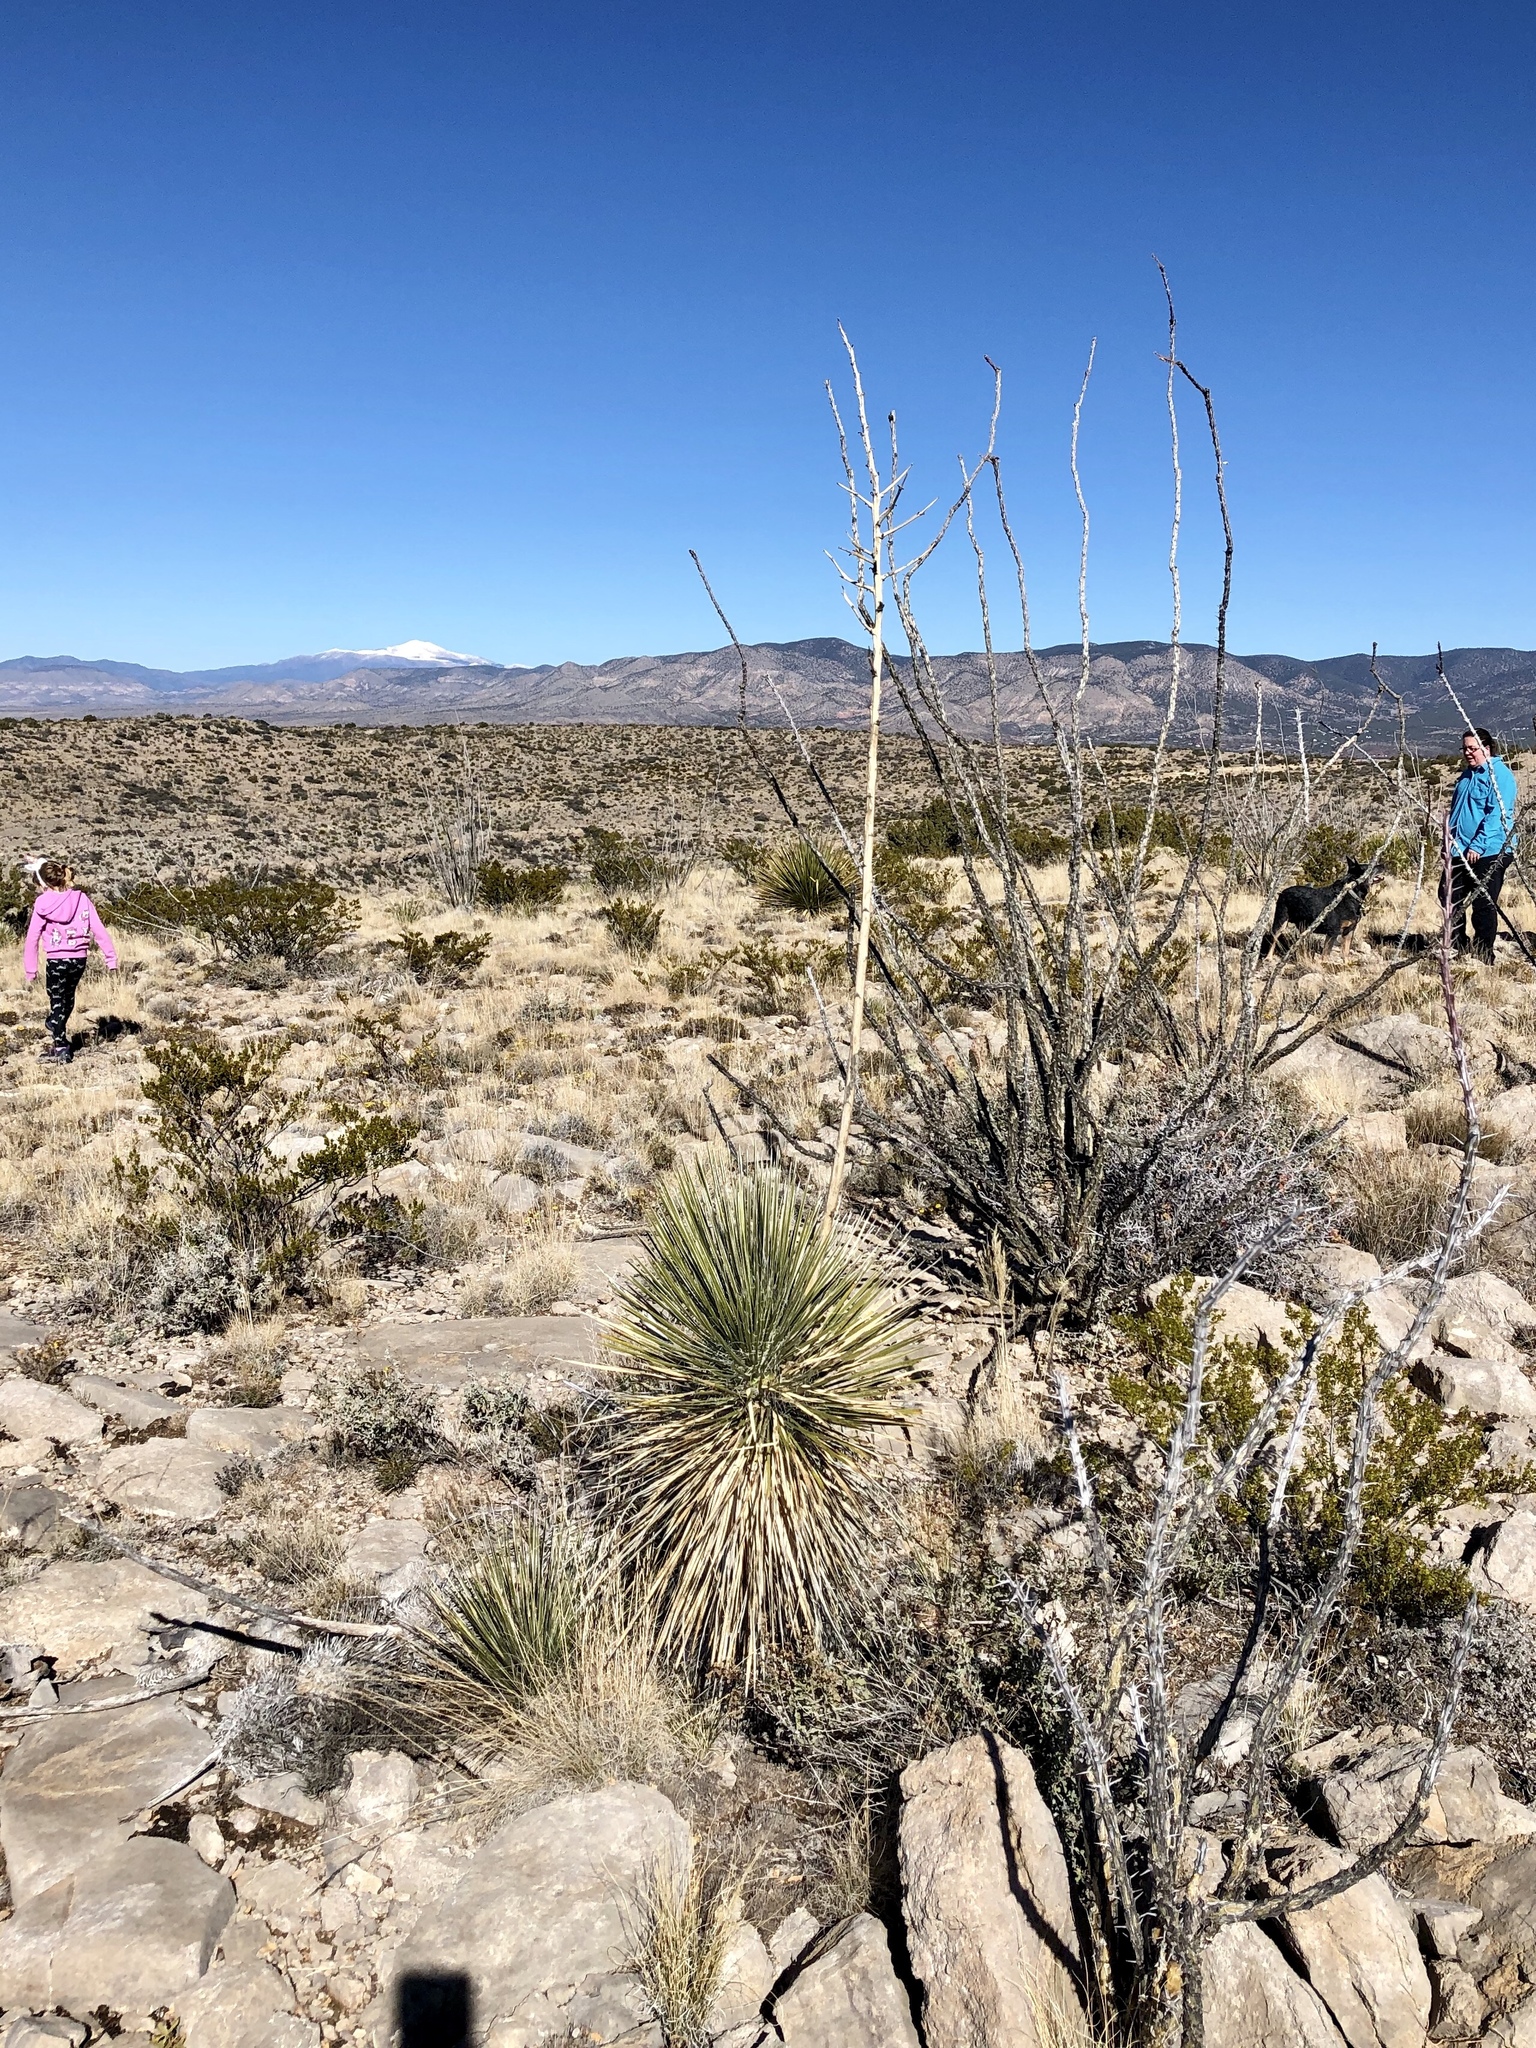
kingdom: Plantae
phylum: Tracheophyta
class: Liliopsida
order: Asparagales
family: Asparagaceae
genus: Dasylirion
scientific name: Dasylirion wheeleri
